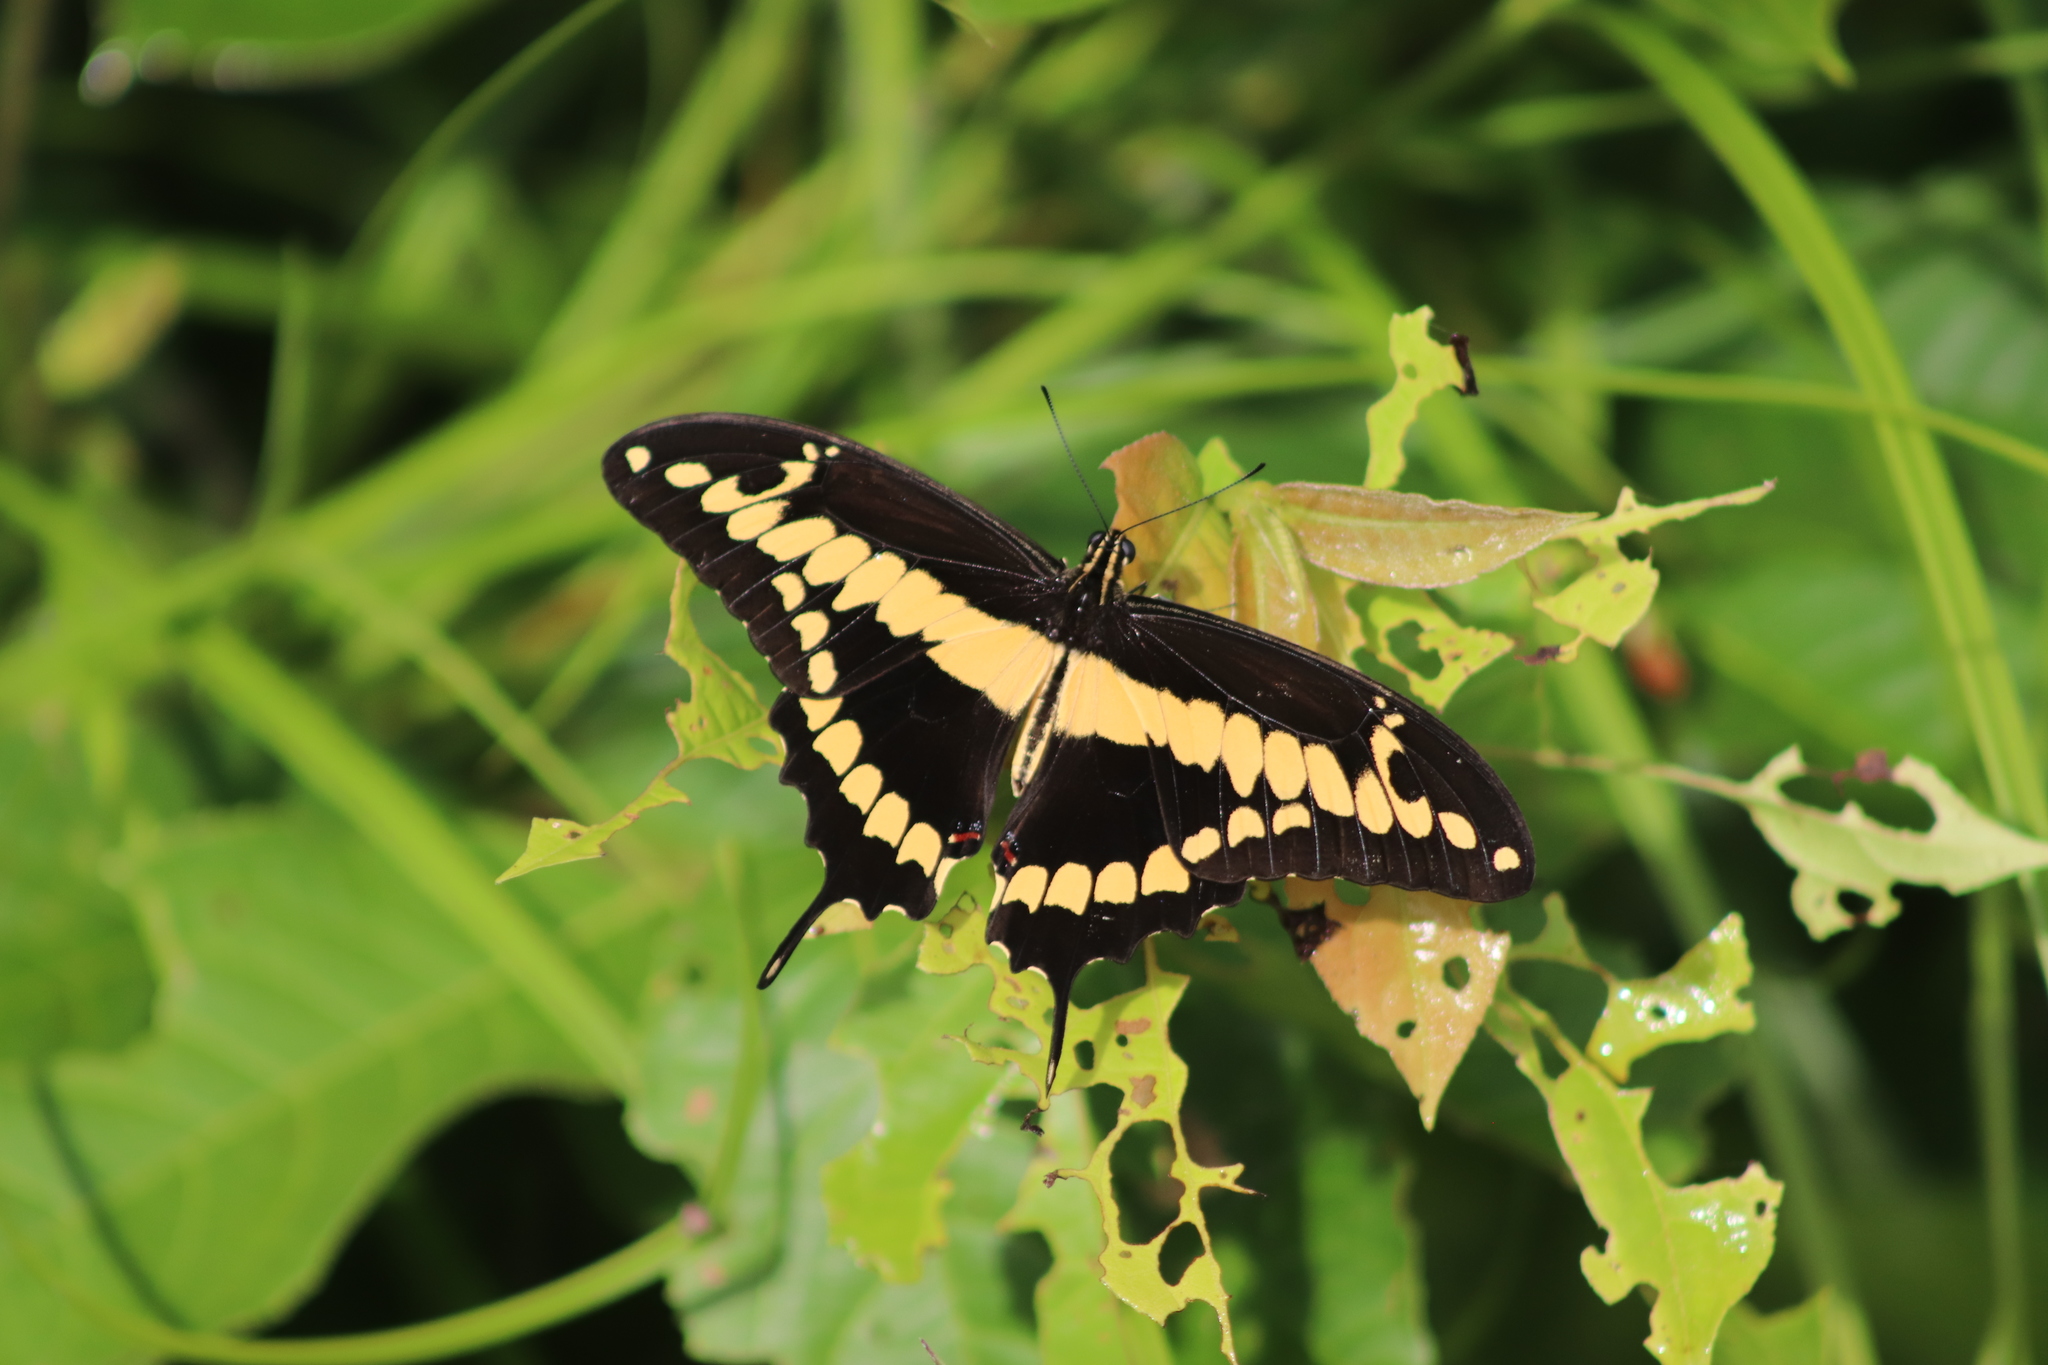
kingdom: Animalia
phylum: Arthropoda
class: Insecta
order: Lepidoptera
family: Papilionidae
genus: Papilio
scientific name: Papilio rumiko
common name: Western giant swallowtail
